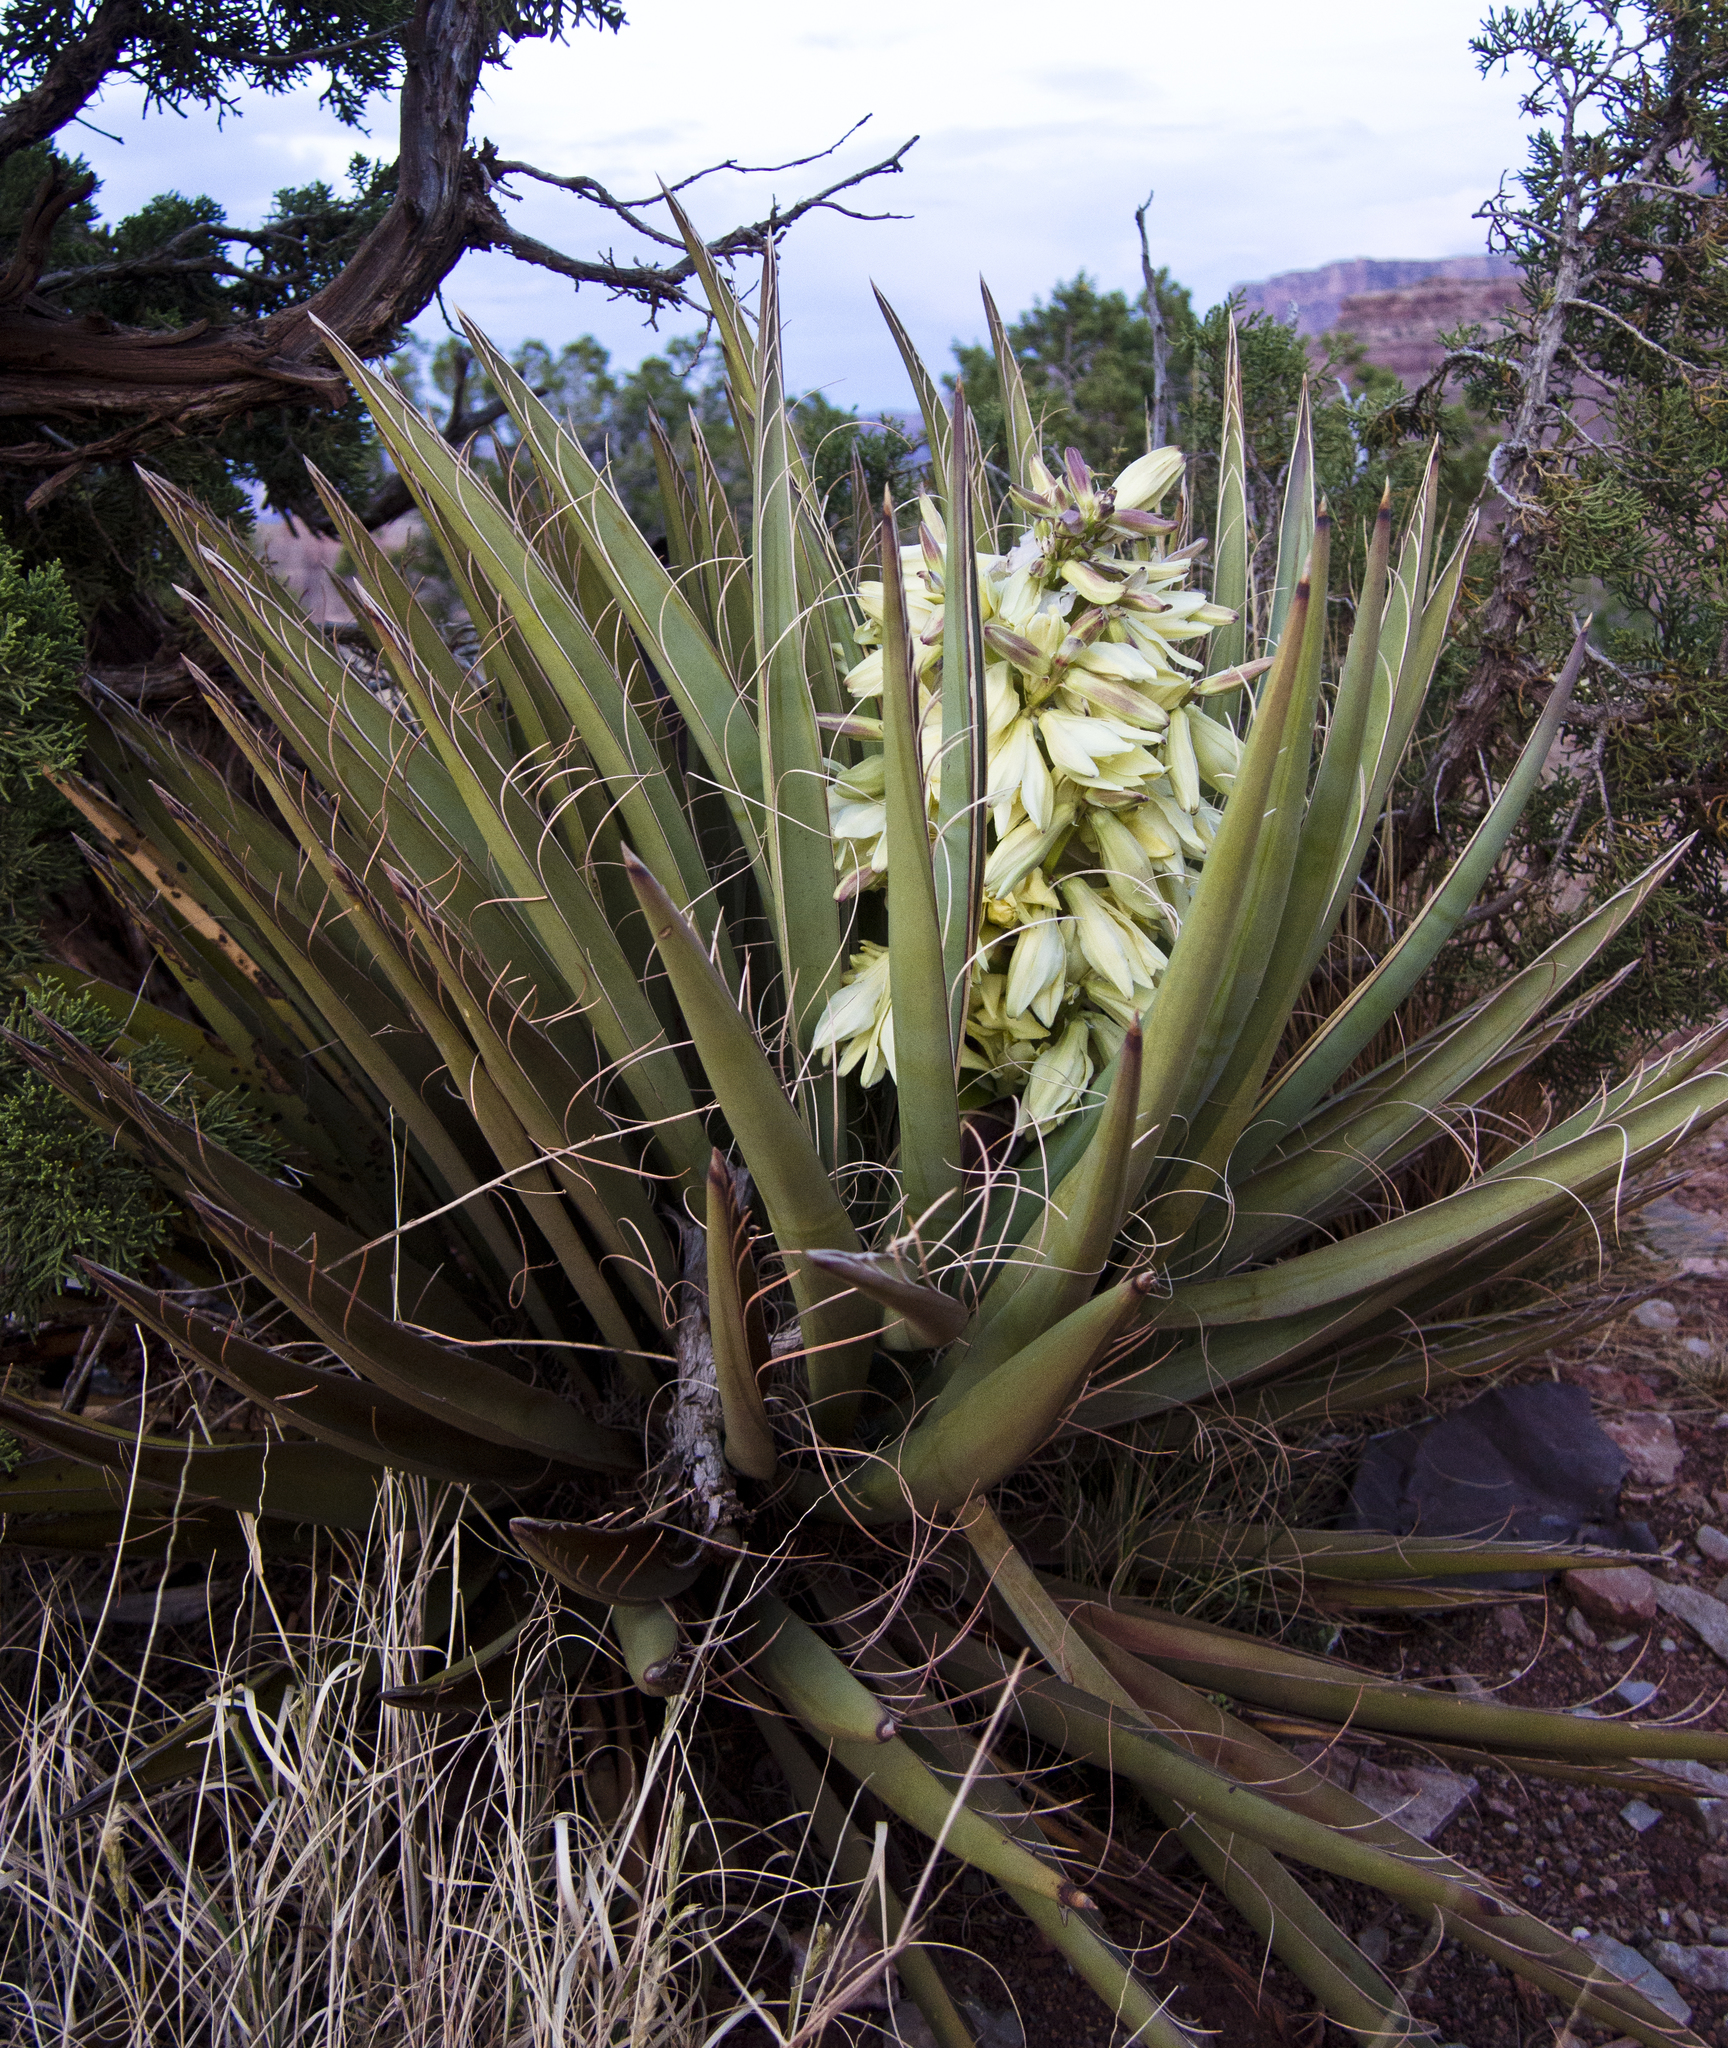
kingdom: Plantae
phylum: Tracheophyta
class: Liliopsida
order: Asparagales
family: Asparagaceae
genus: Yucca
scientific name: Yucca baccata
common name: Banana yucca
